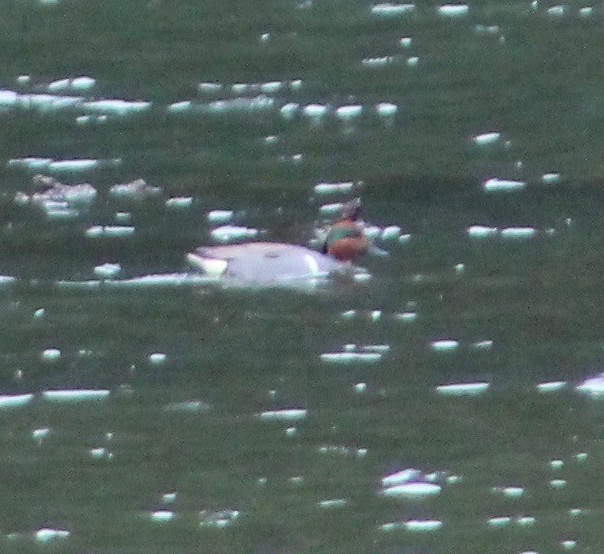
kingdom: Animalia
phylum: Chordata
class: Aves
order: Anseriformes
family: Anatidae
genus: Anas
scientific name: Anas crecca
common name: Eurasian teal
